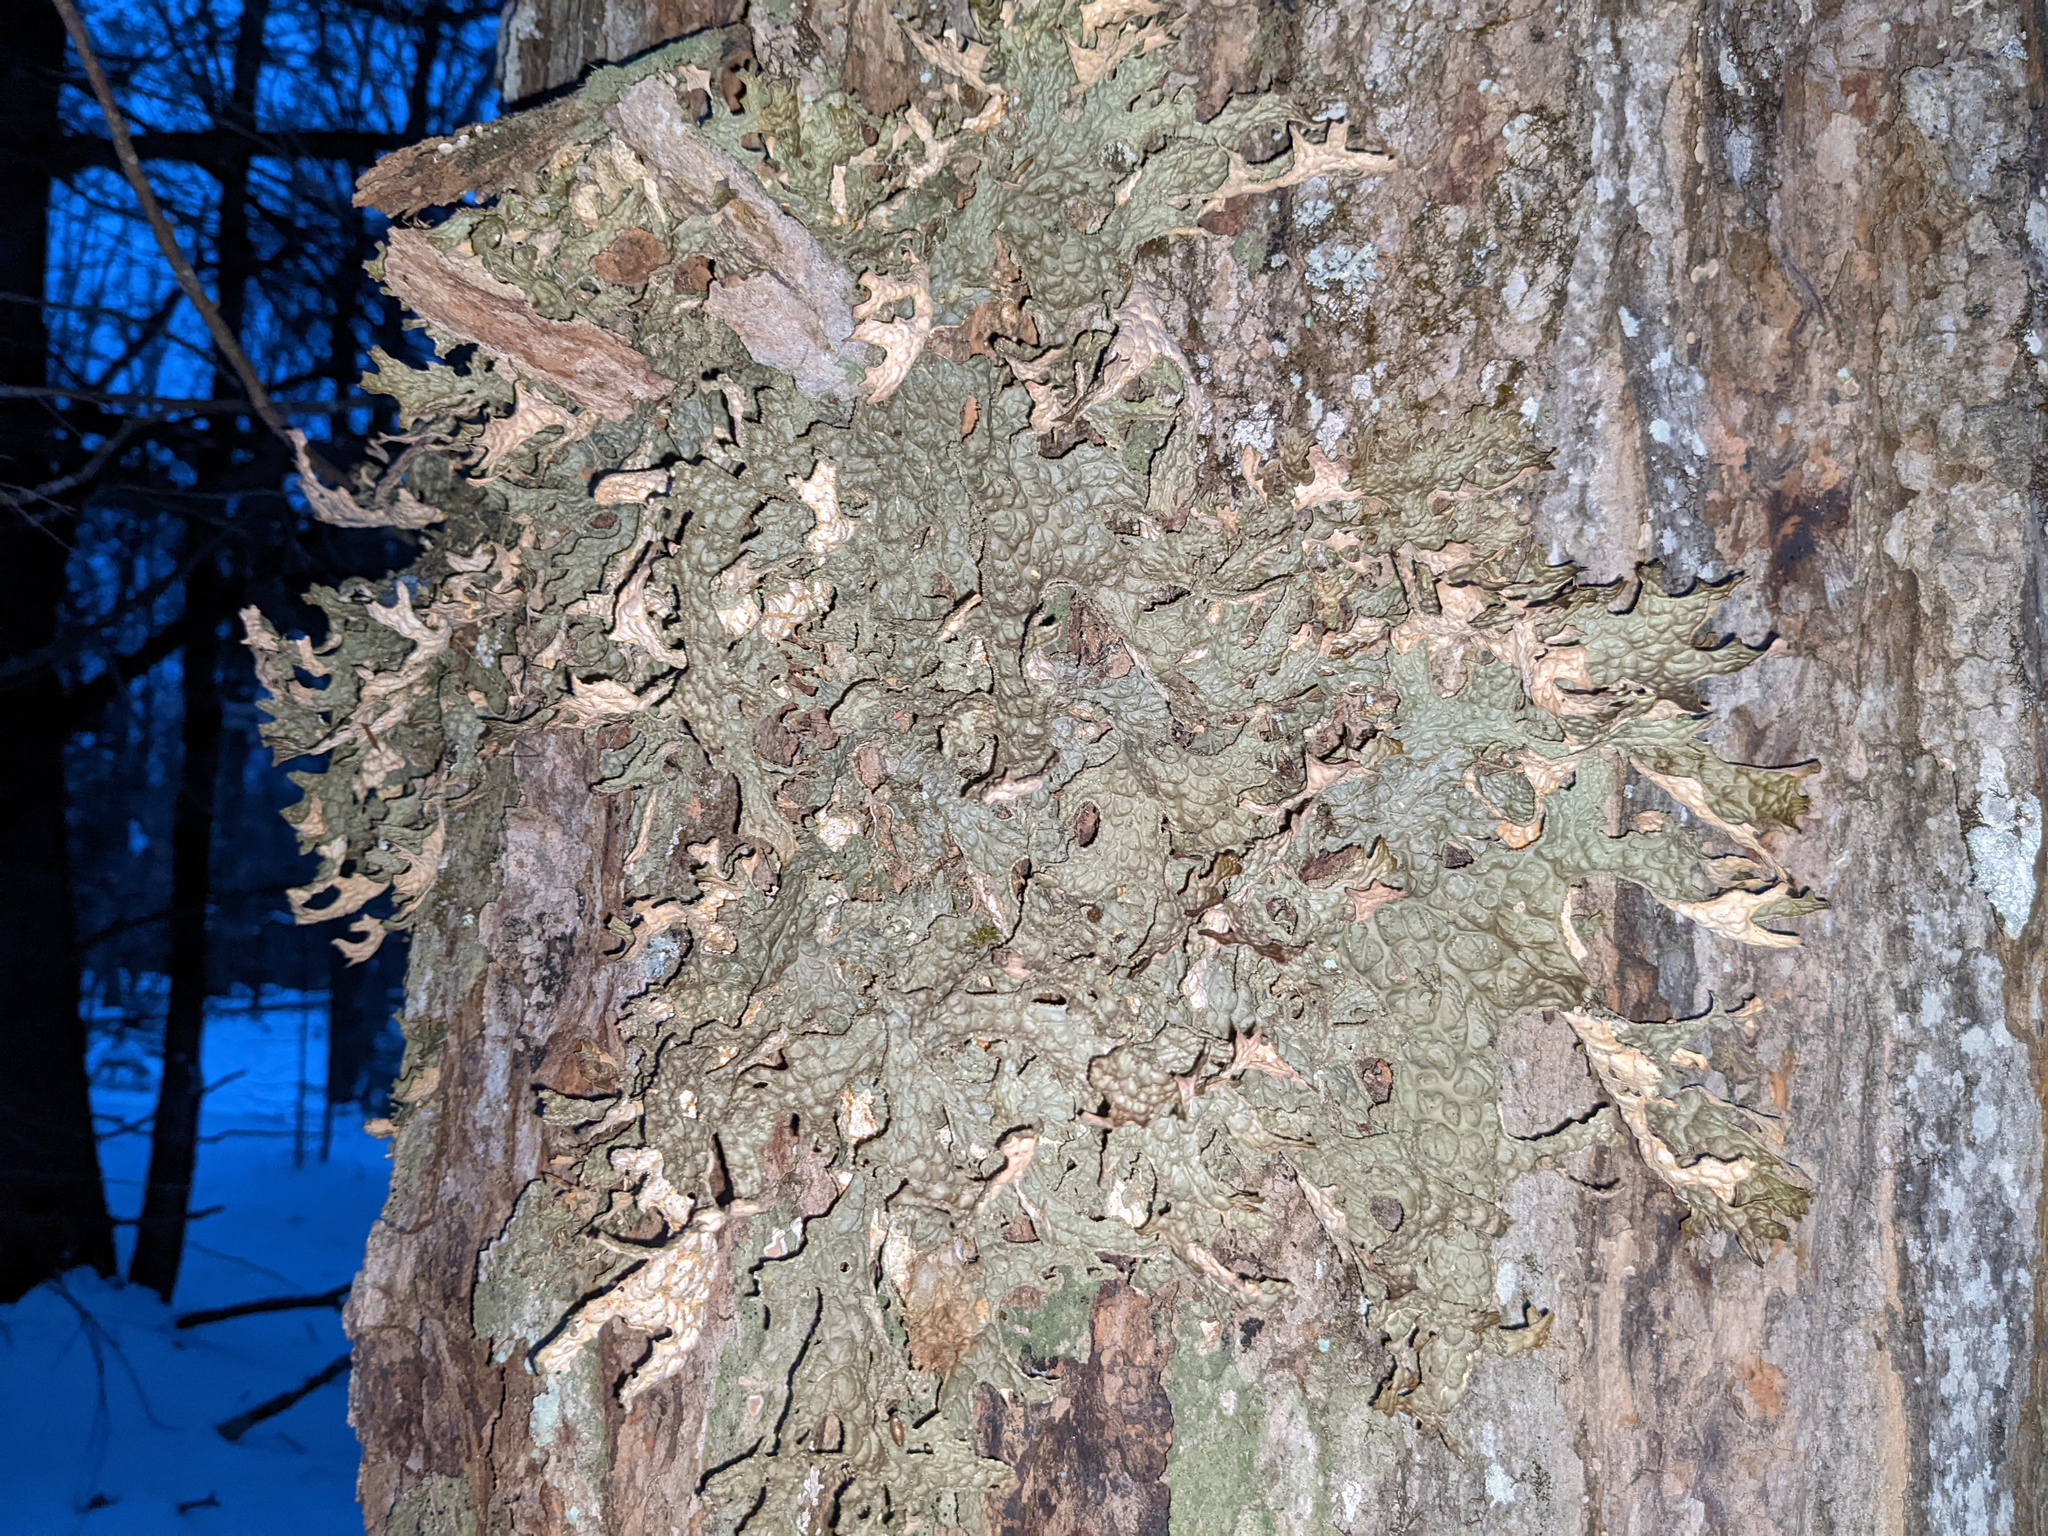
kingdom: Fungi
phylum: Ascomycota
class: Lecanoromycetes
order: Peltigerales
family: Lobariaceae
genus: Lobaria
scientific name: Lobaria pulmonaria
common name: Lungwort
